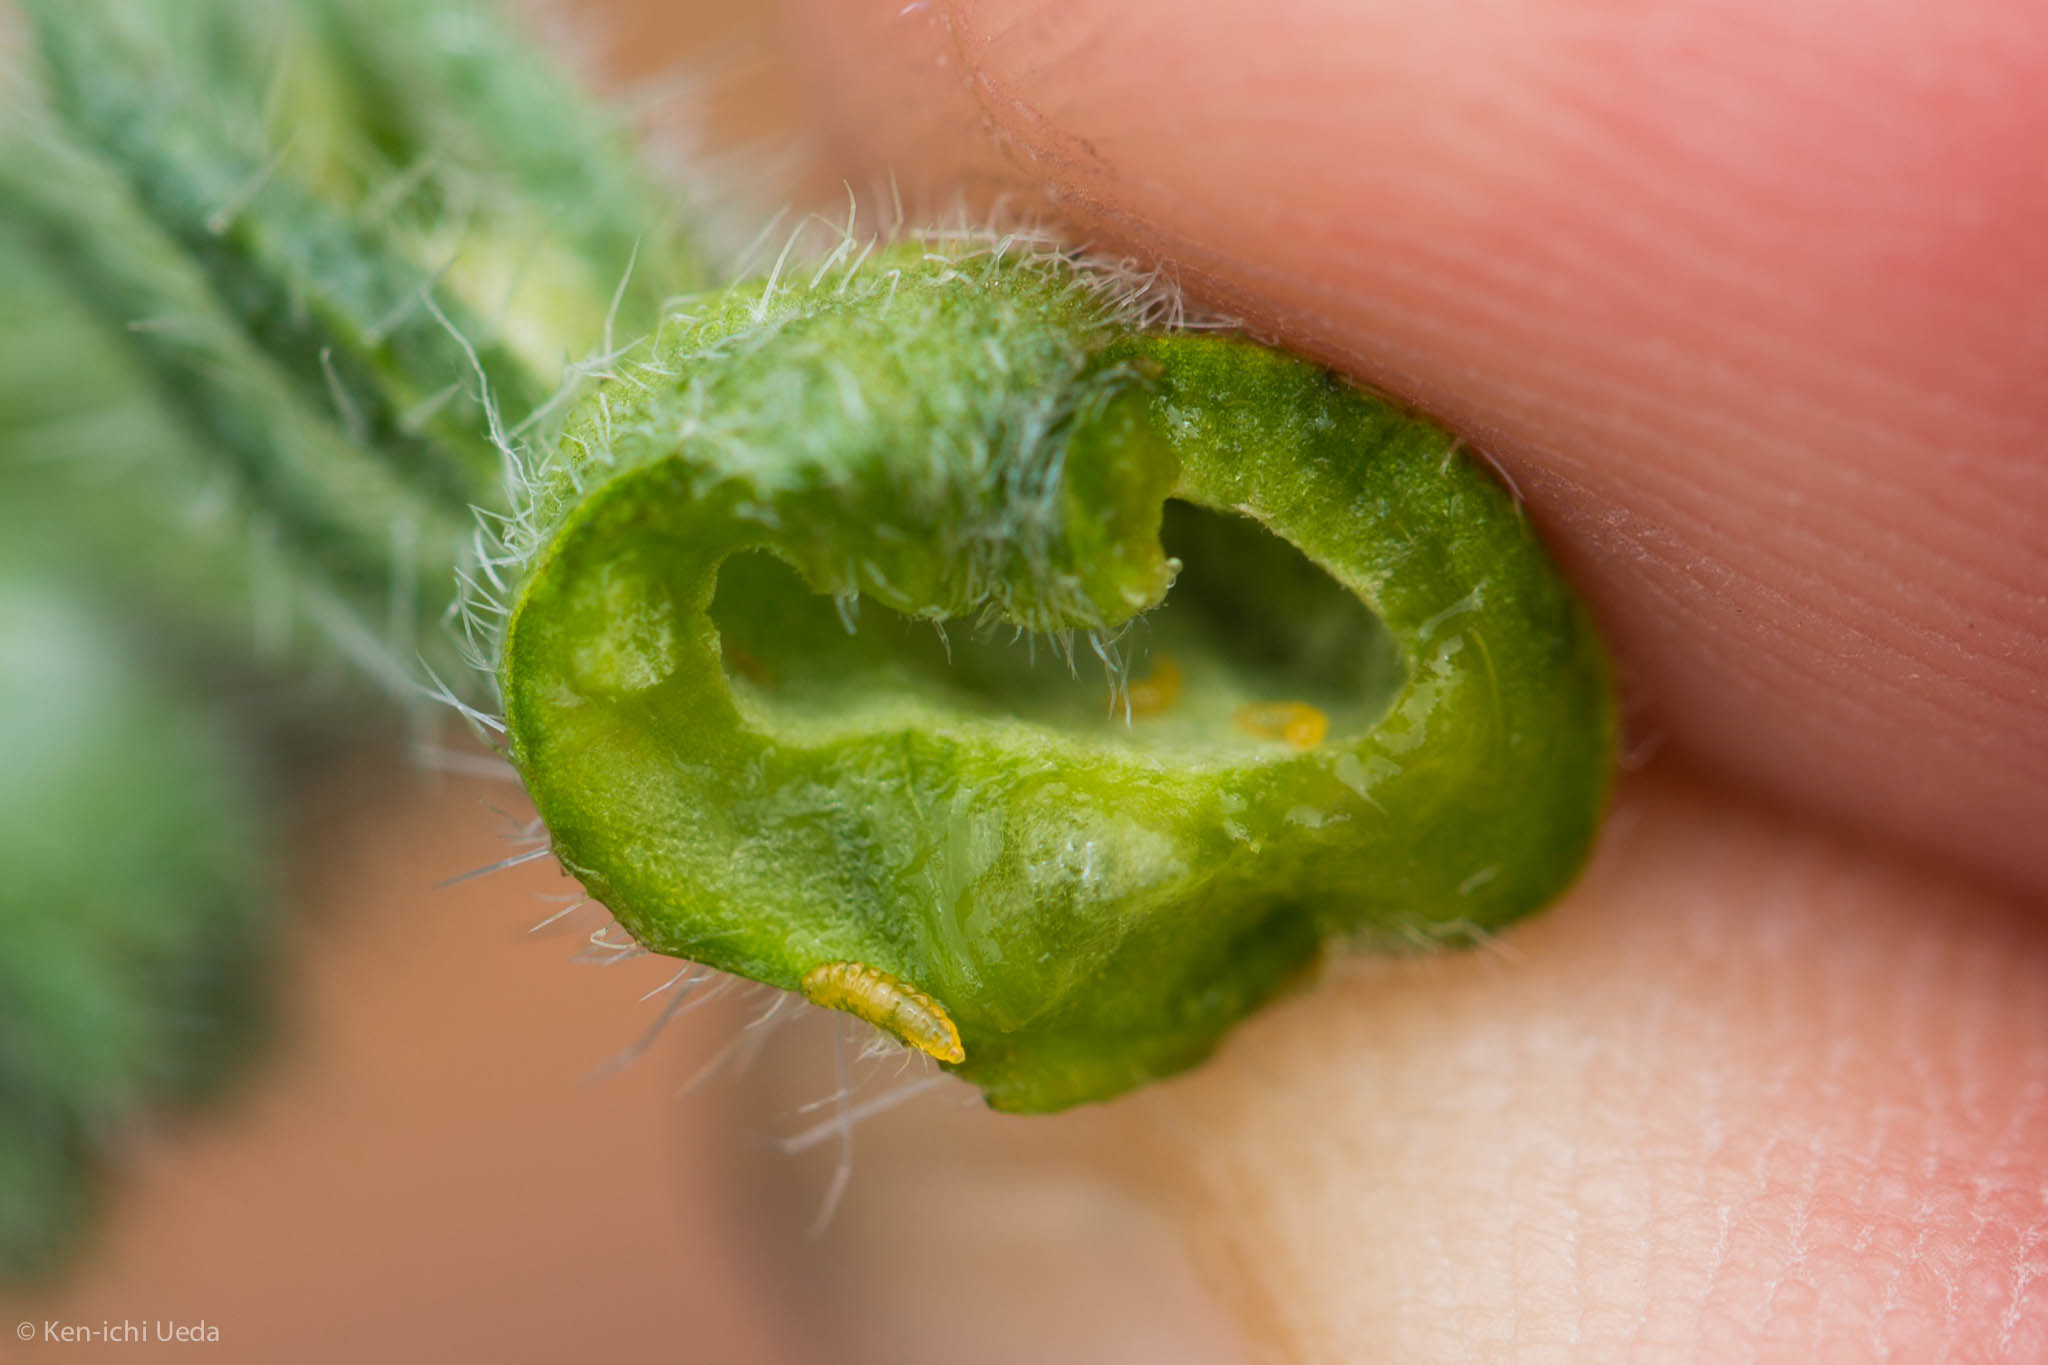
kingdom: Animalia
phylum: Arthropoda
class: Insecta
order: Diptera
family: Cecidomyiidae
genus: Schizomyia
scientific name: Schizomyia macrofila
